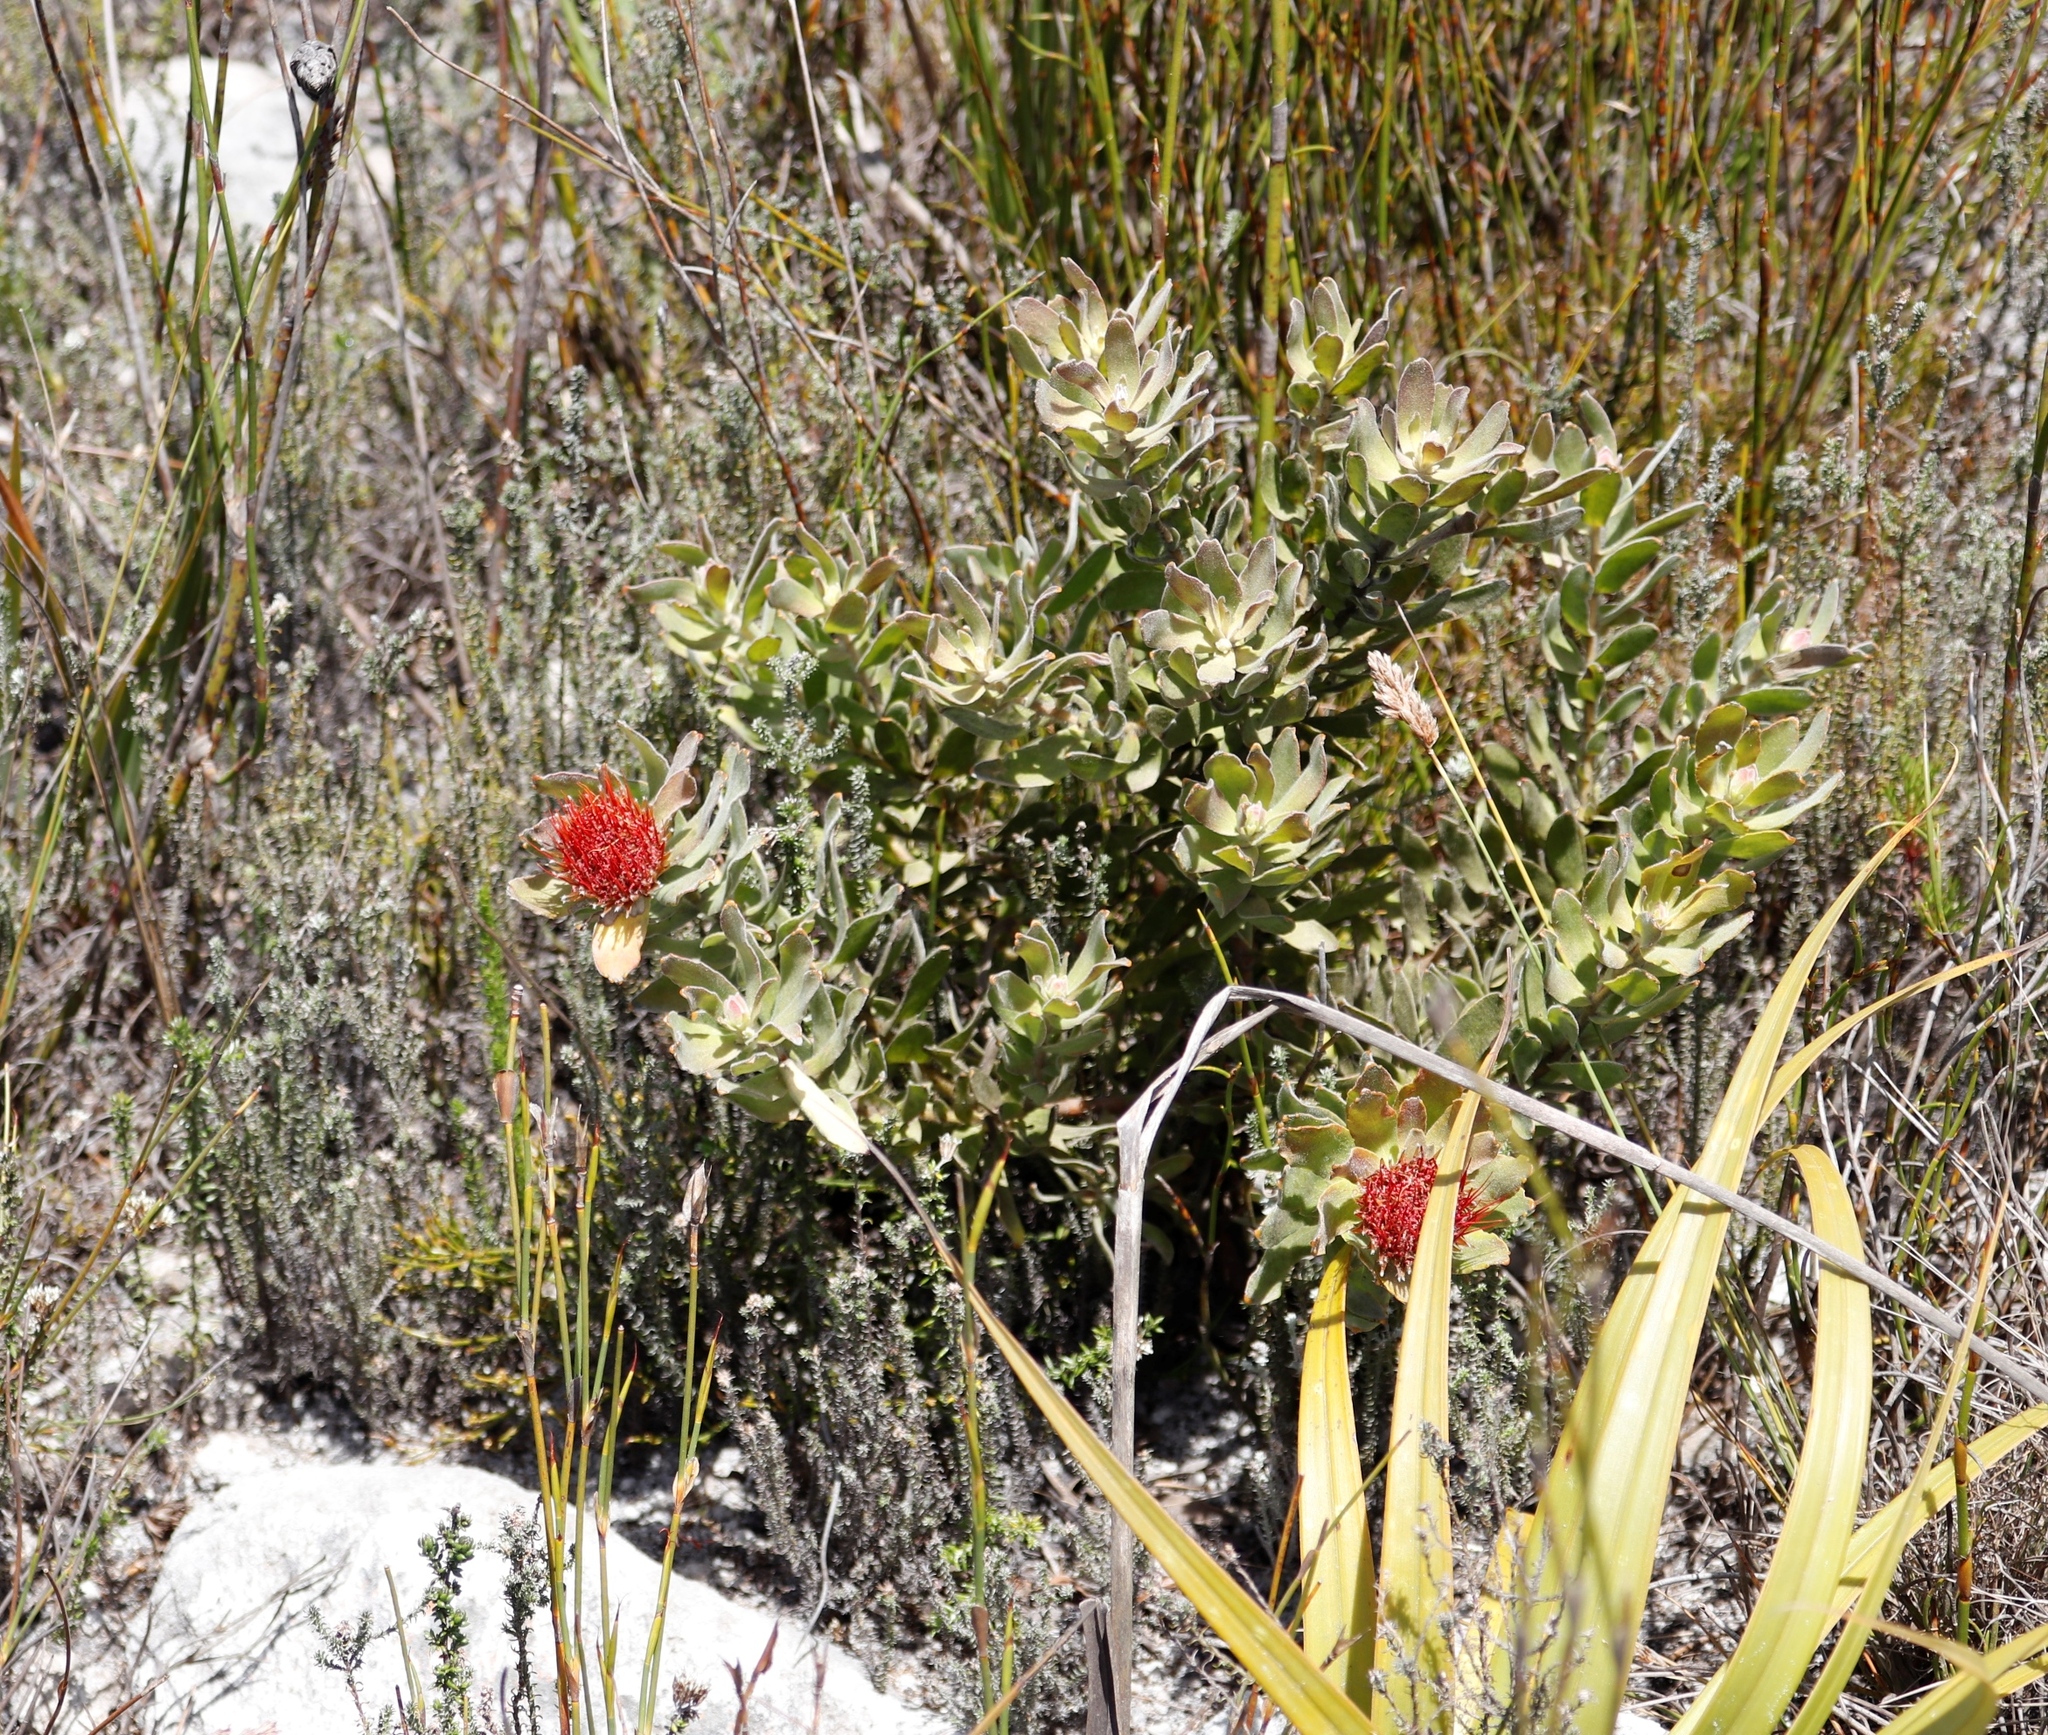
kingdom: Plantae
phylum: Tracheophyta
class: Magnoliopsida
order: Proteales
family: Proteaceae
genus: Leucospermum
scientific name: Leucospermum oleifolium
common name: Matches
